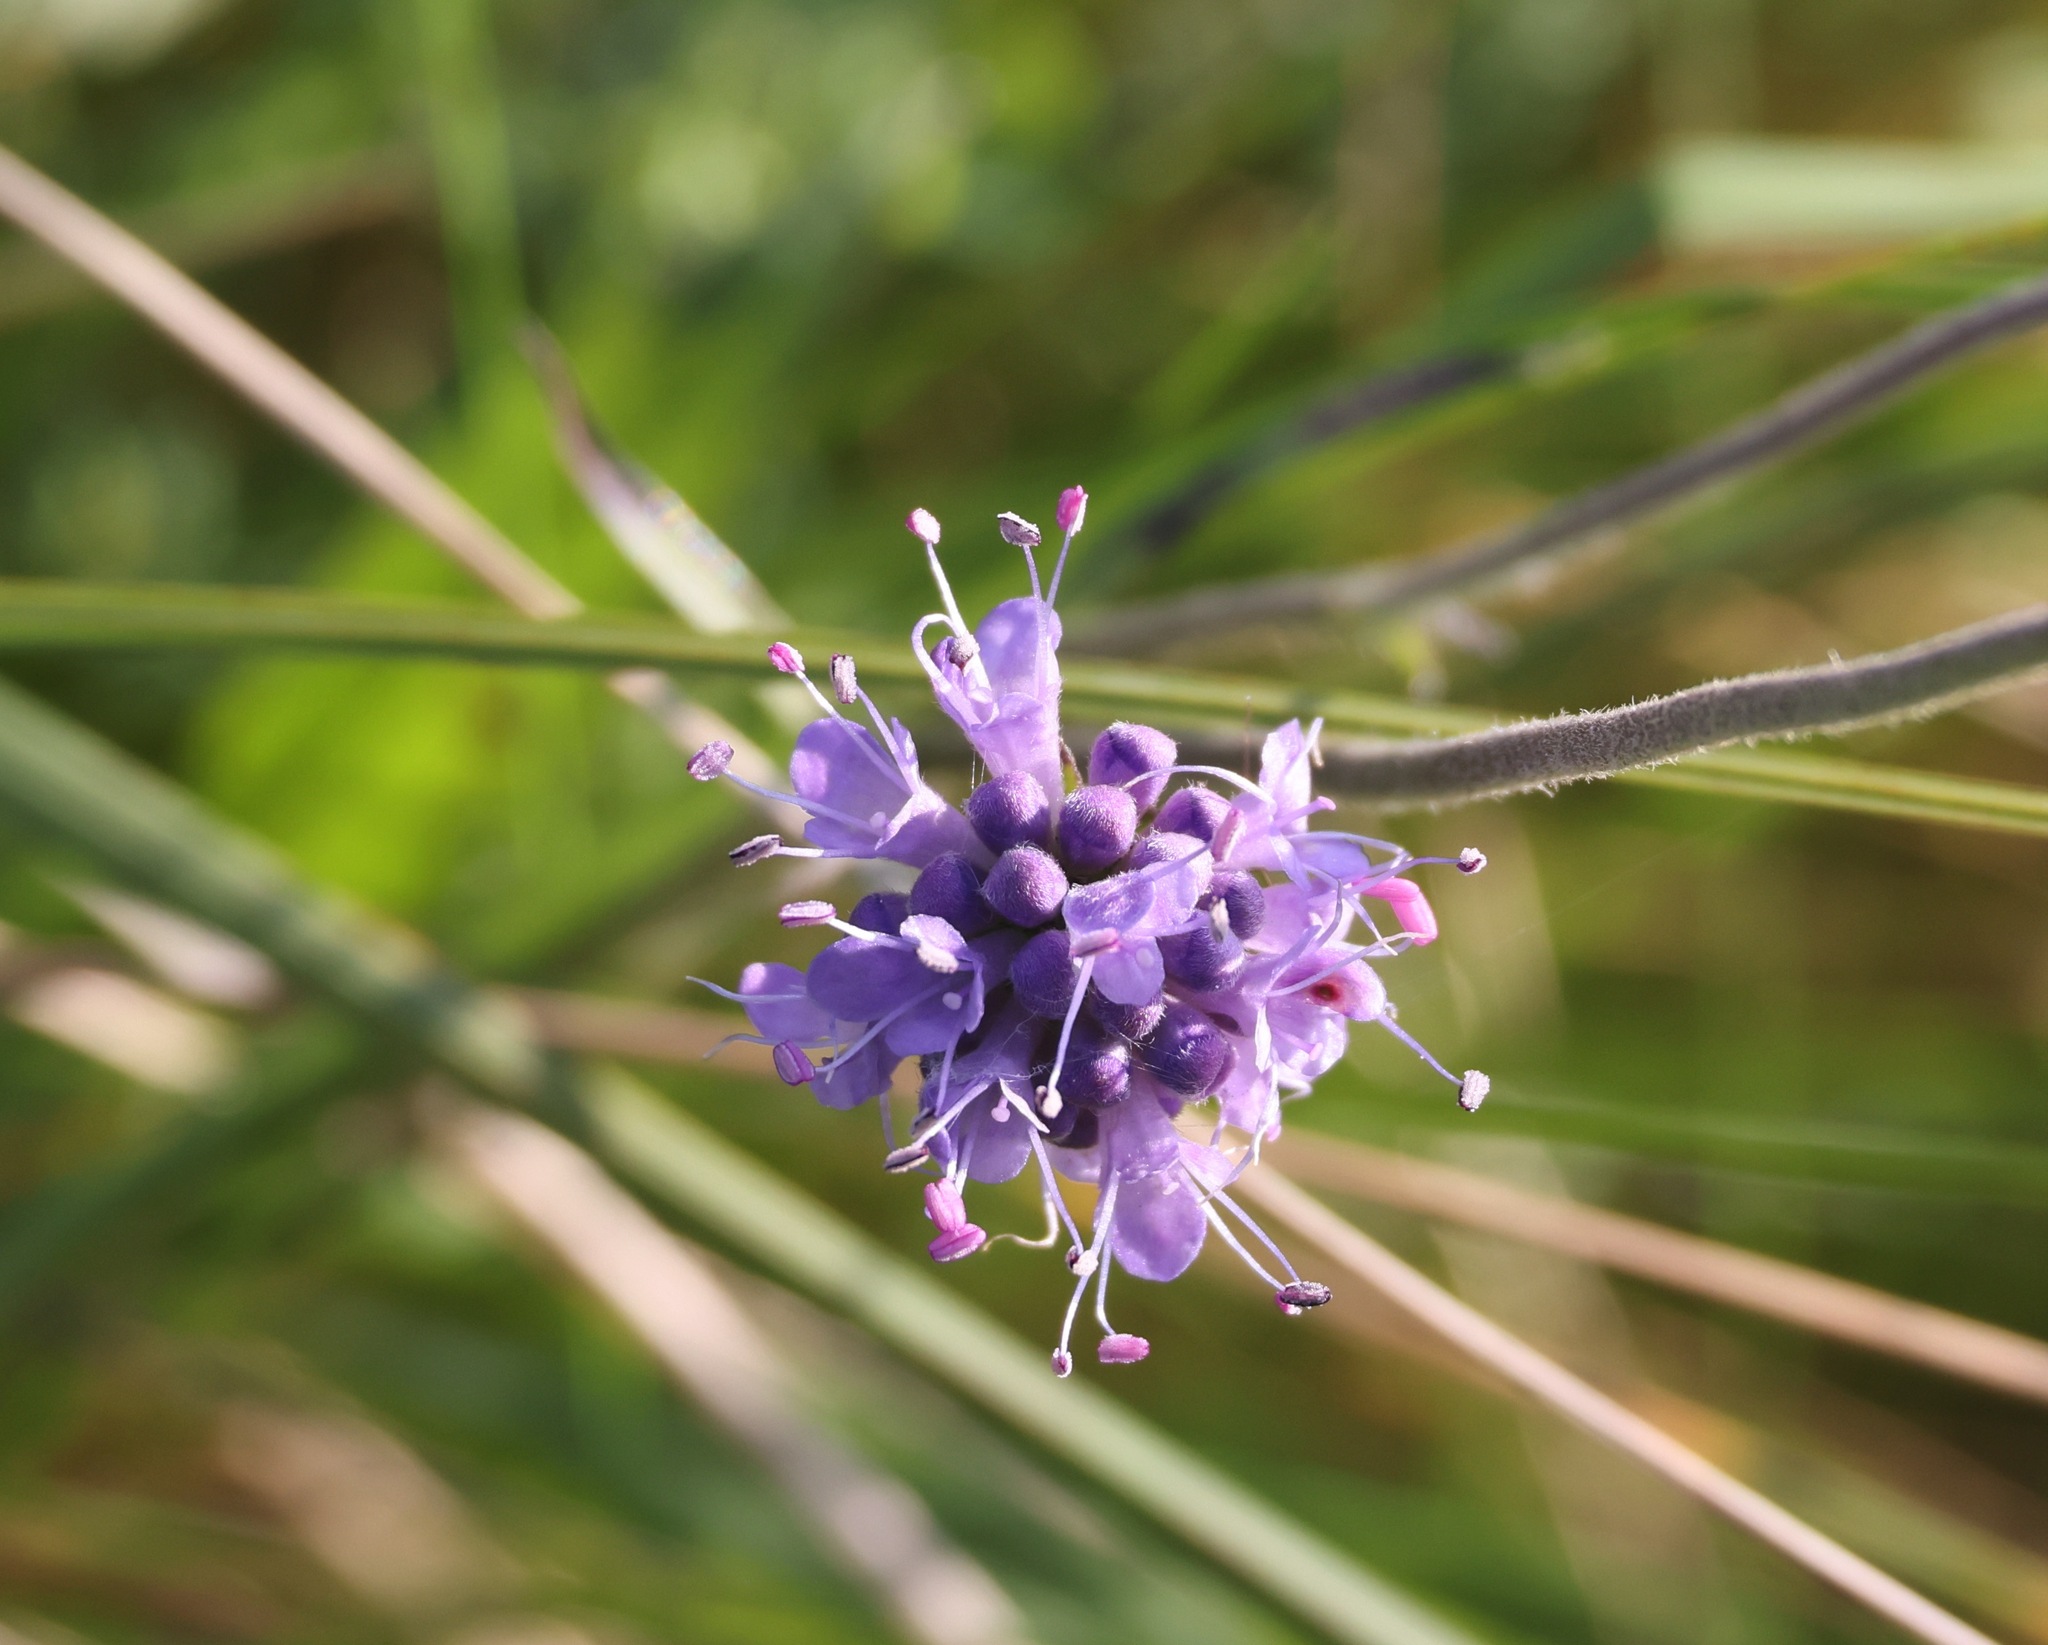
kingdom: Plantae
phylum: Tracheophyta
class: Magnoliopsida
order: Dipsacales
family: Caprifoliaceae
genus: Succisa
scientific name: Succisa pratensis
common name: Devil's-bit
